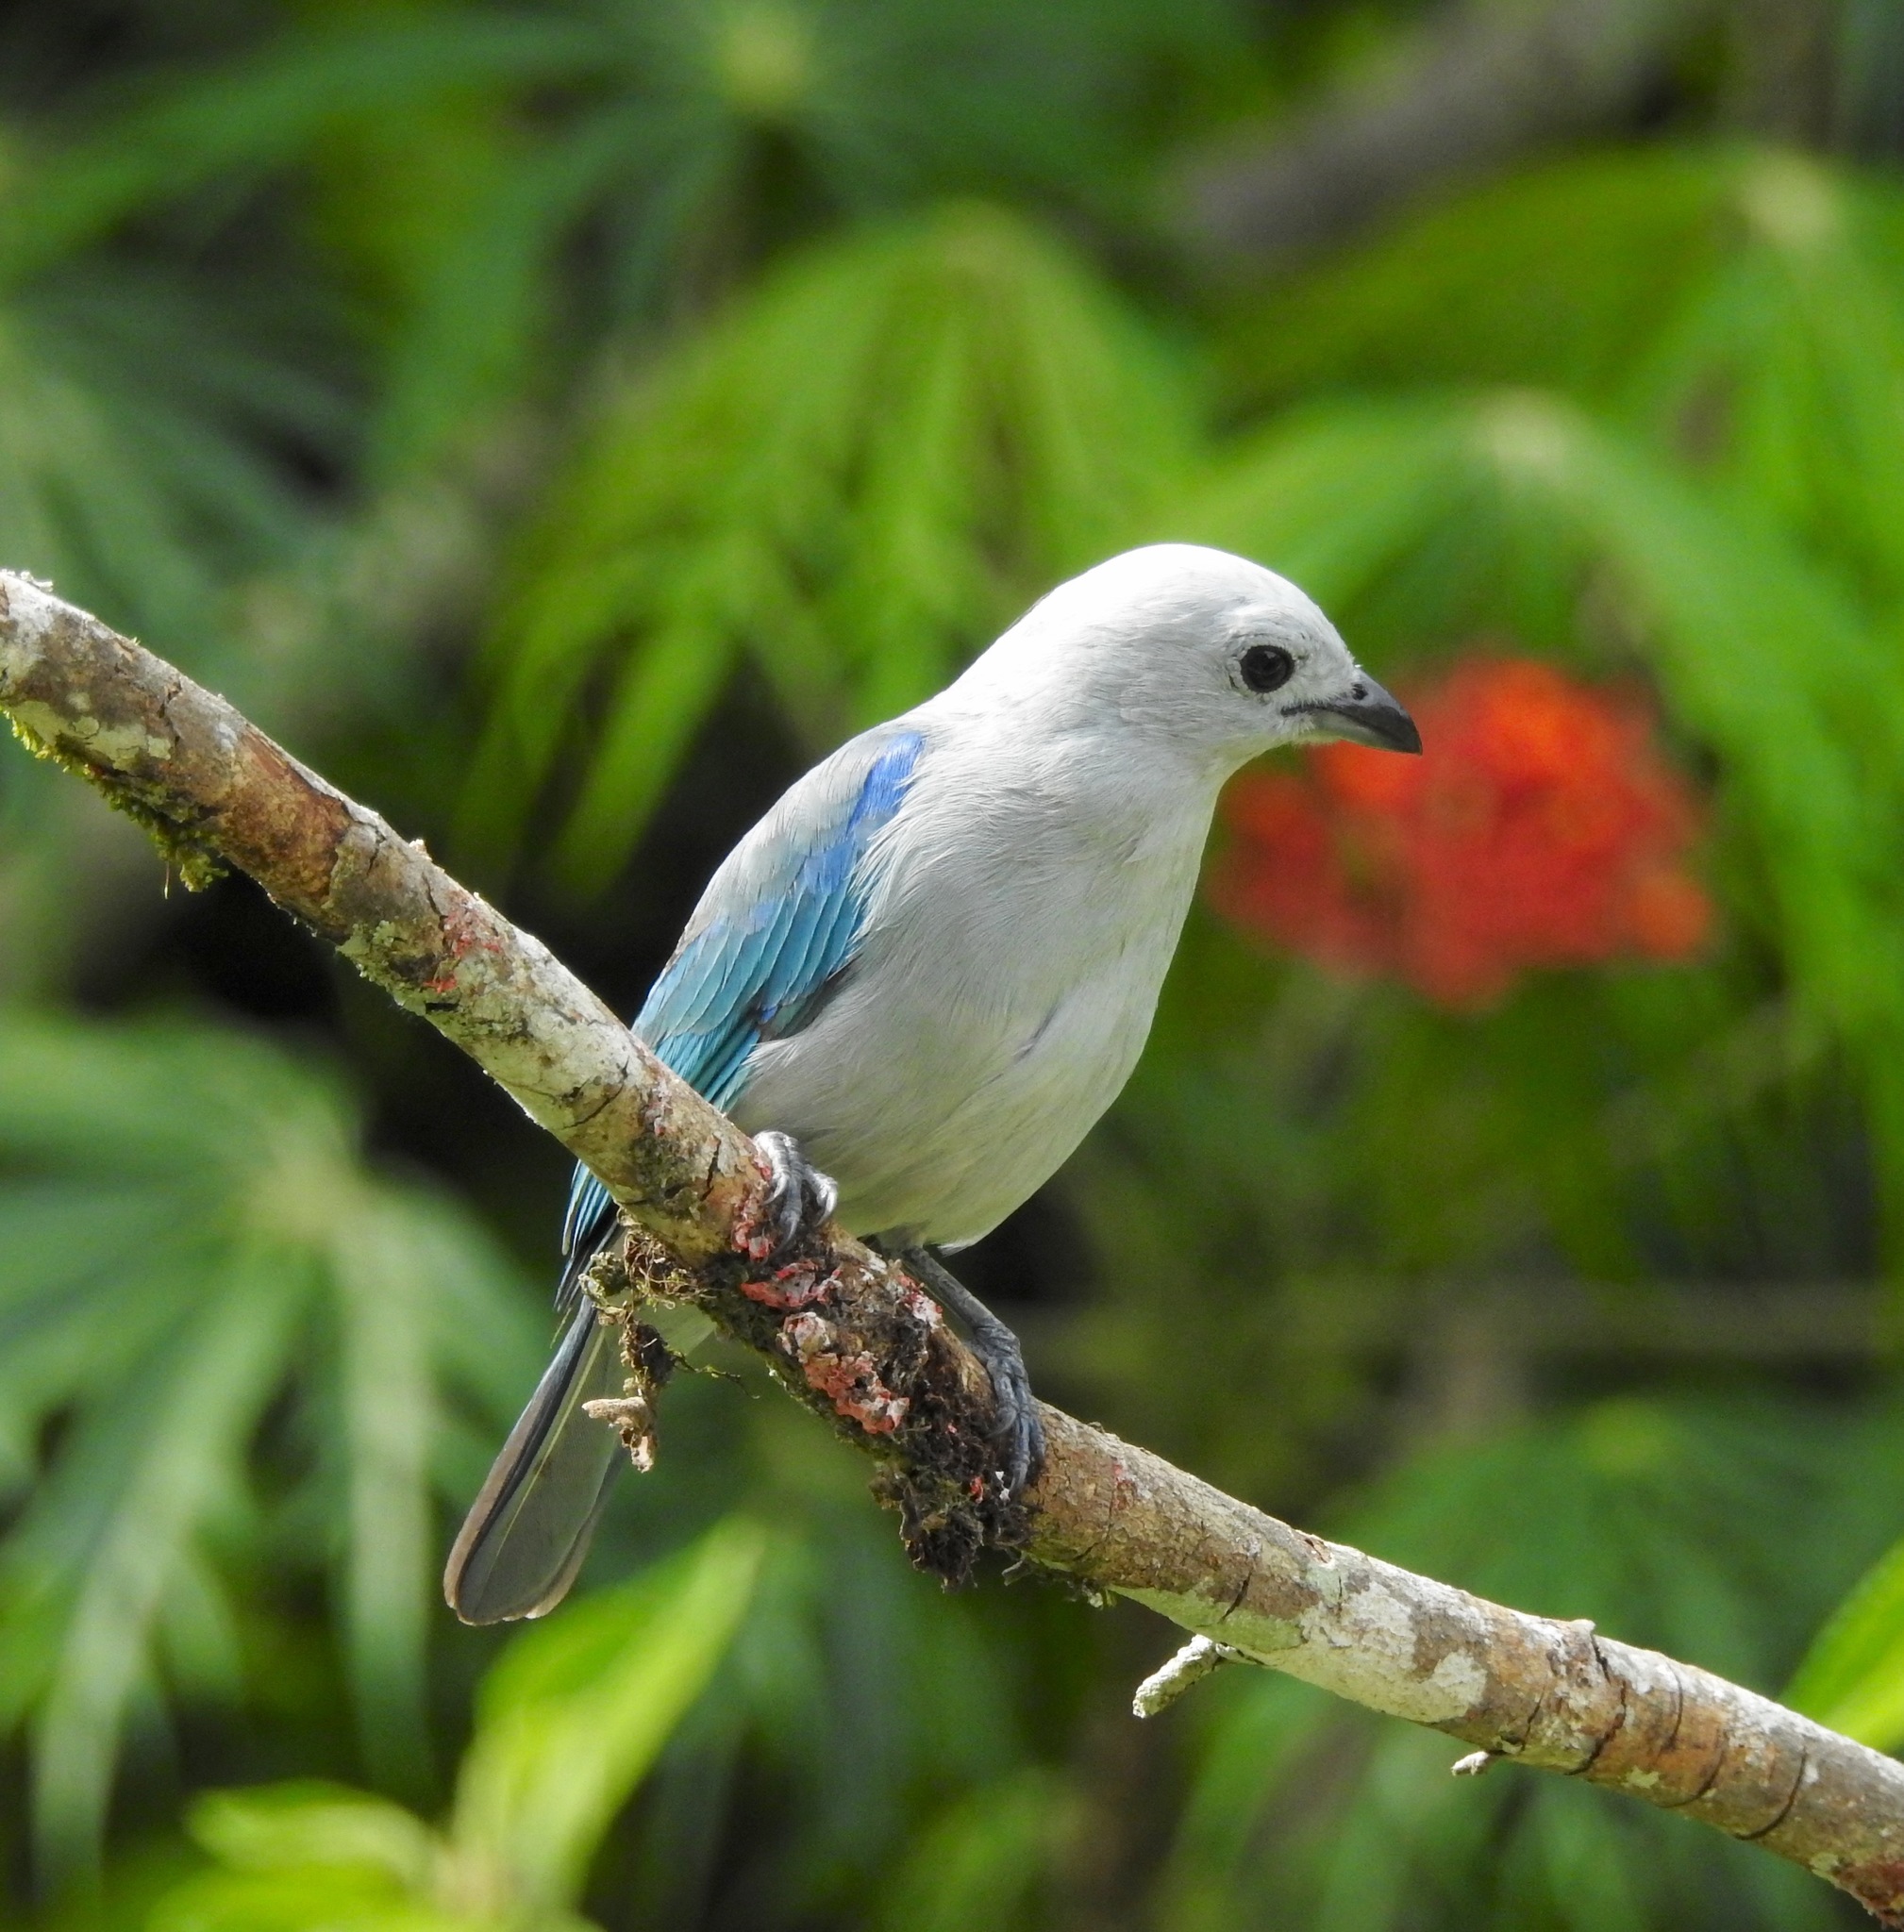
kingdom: Animalia
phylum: Chordata
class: Aves
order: Passeriformes
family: Thraupidae
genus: Thraupis
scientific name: Thraupis episcopus
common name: Blue-grey tanager
